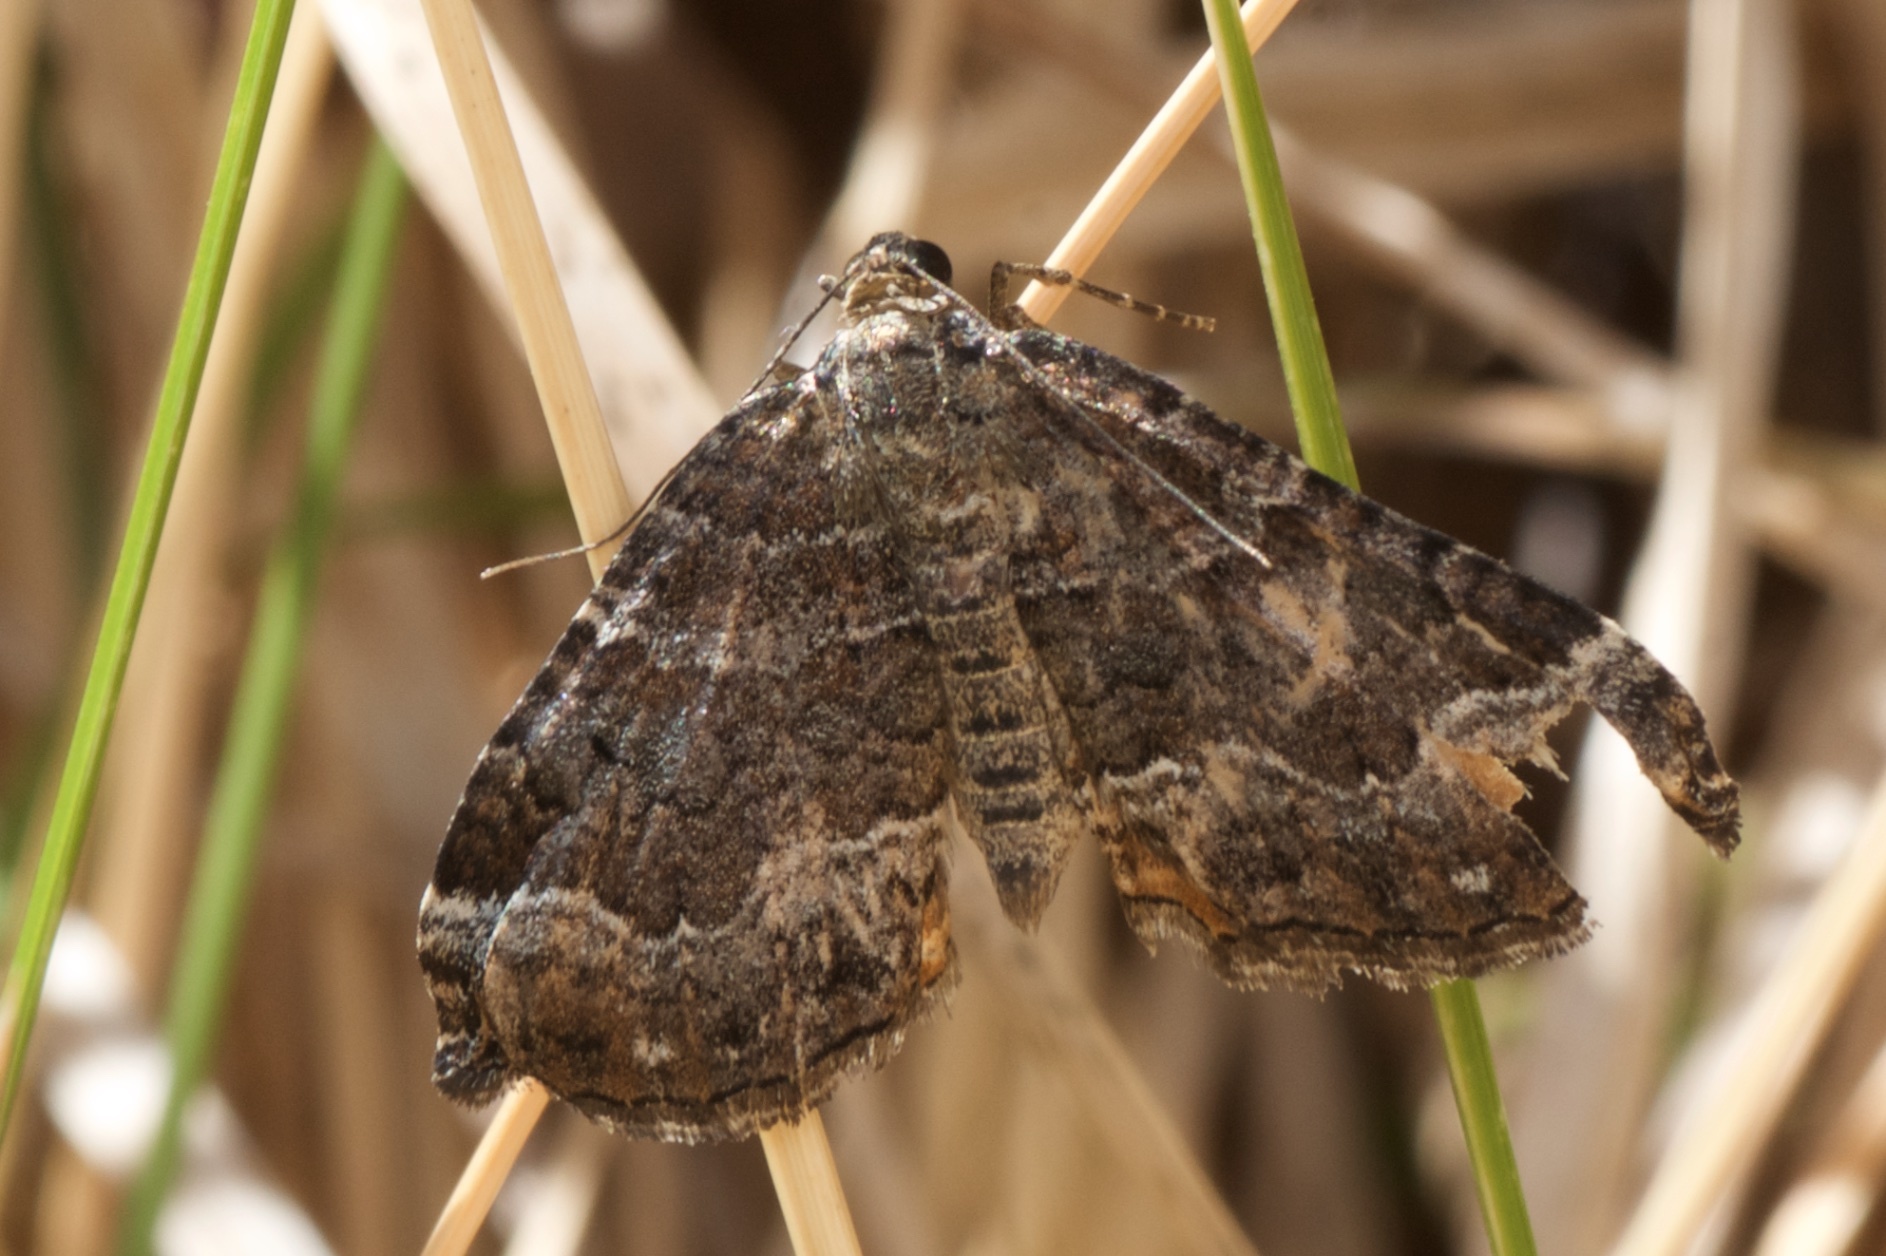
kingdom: Animalia
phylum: Arthropoda
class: Insecta
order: Lepidoptera
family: Geometridae
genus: Hydriomena
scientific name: Hydriomena deltoidata
